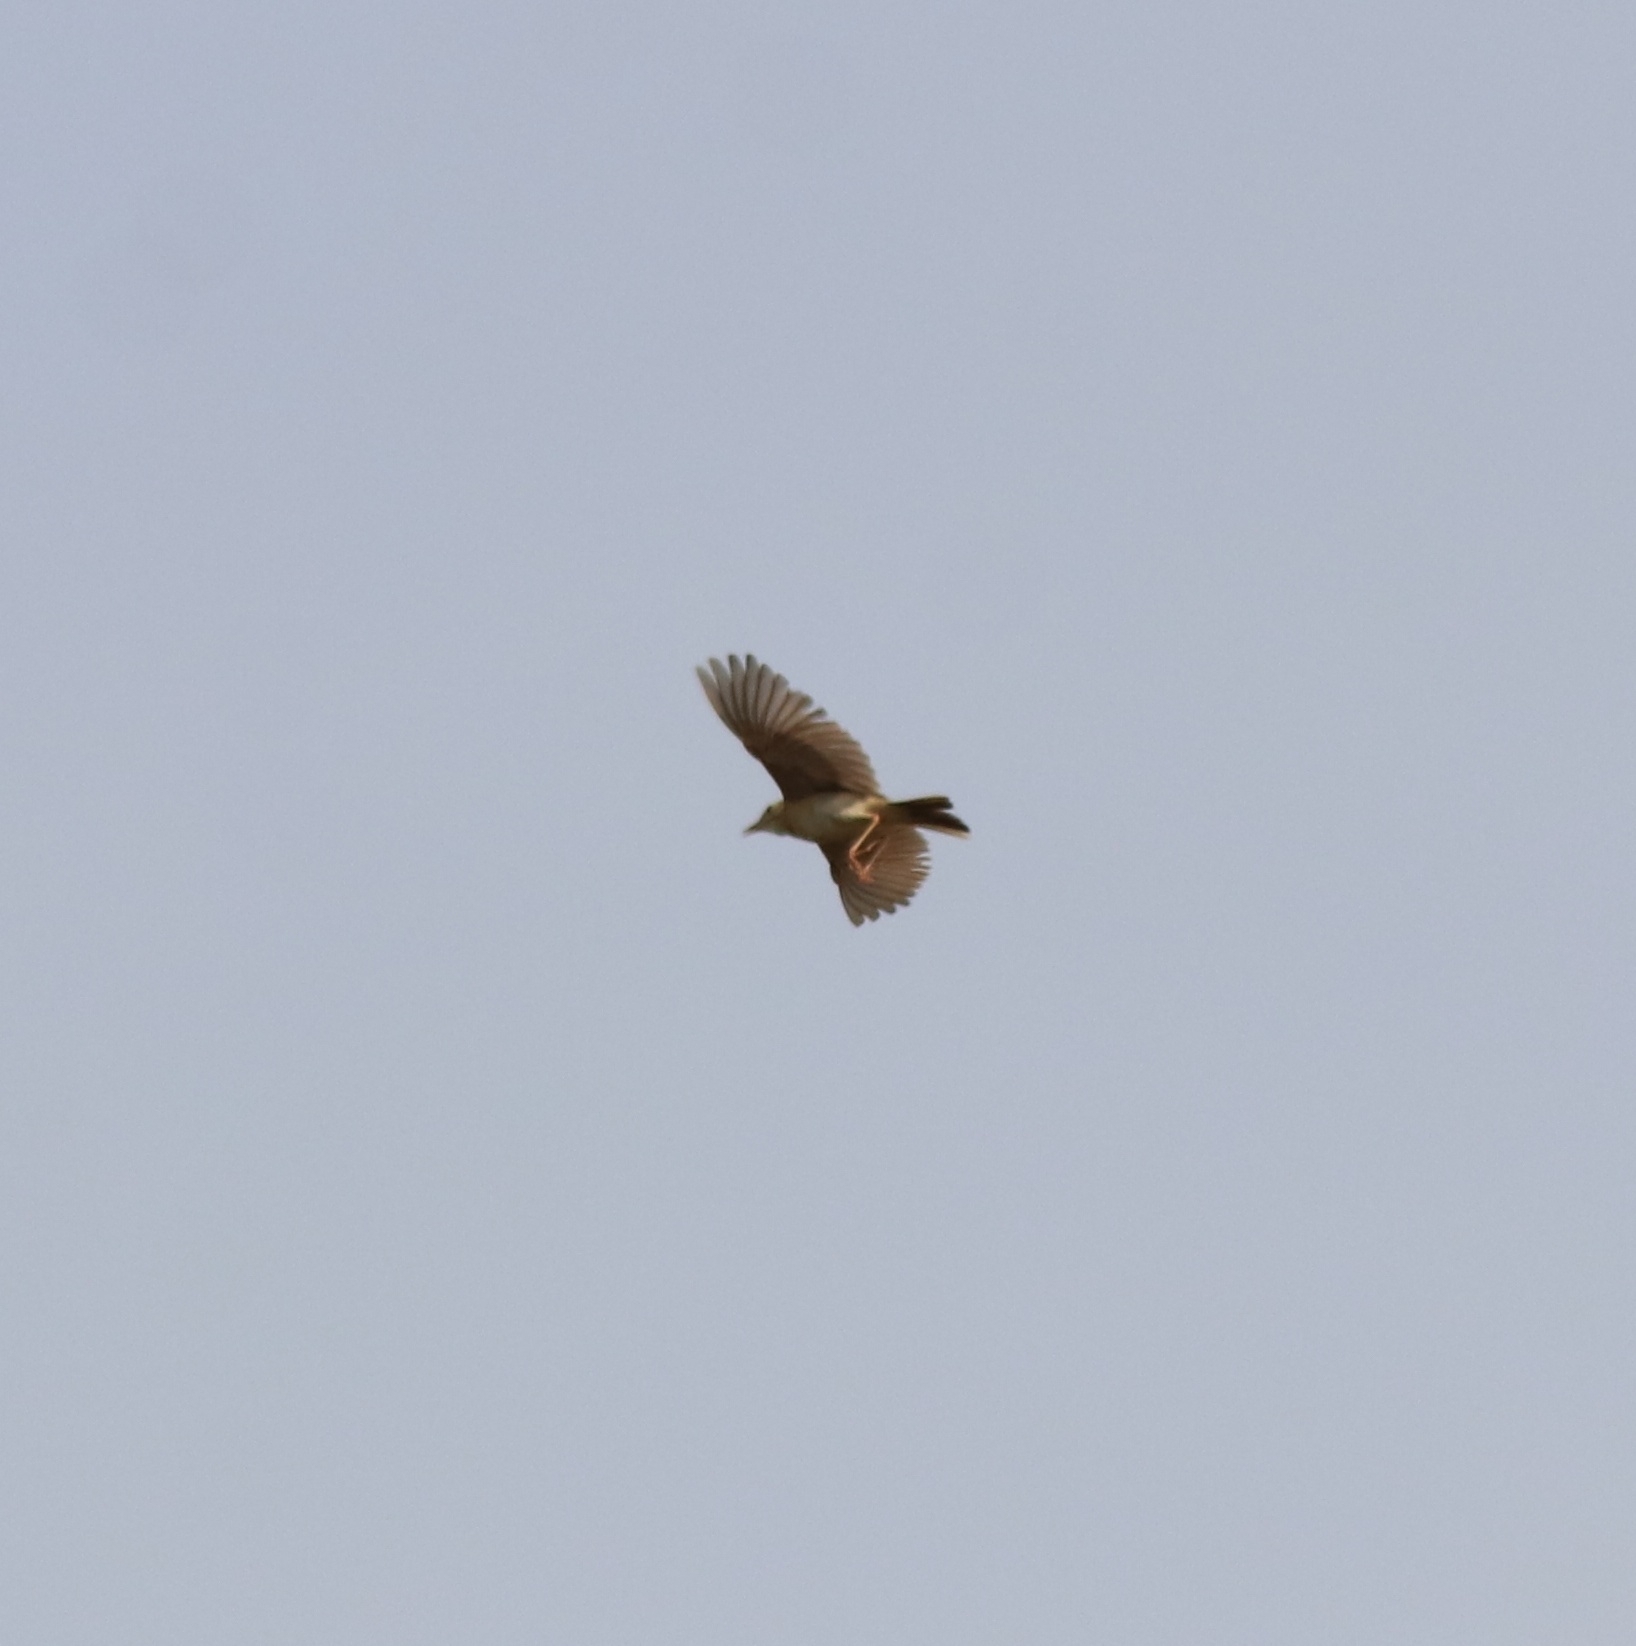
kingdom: Animalia
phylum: Chordata
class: Aves
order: Passeriformes
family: Motacillidae
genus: Anthus
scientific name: Anthus rufulus
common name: Paddyfield pipit
